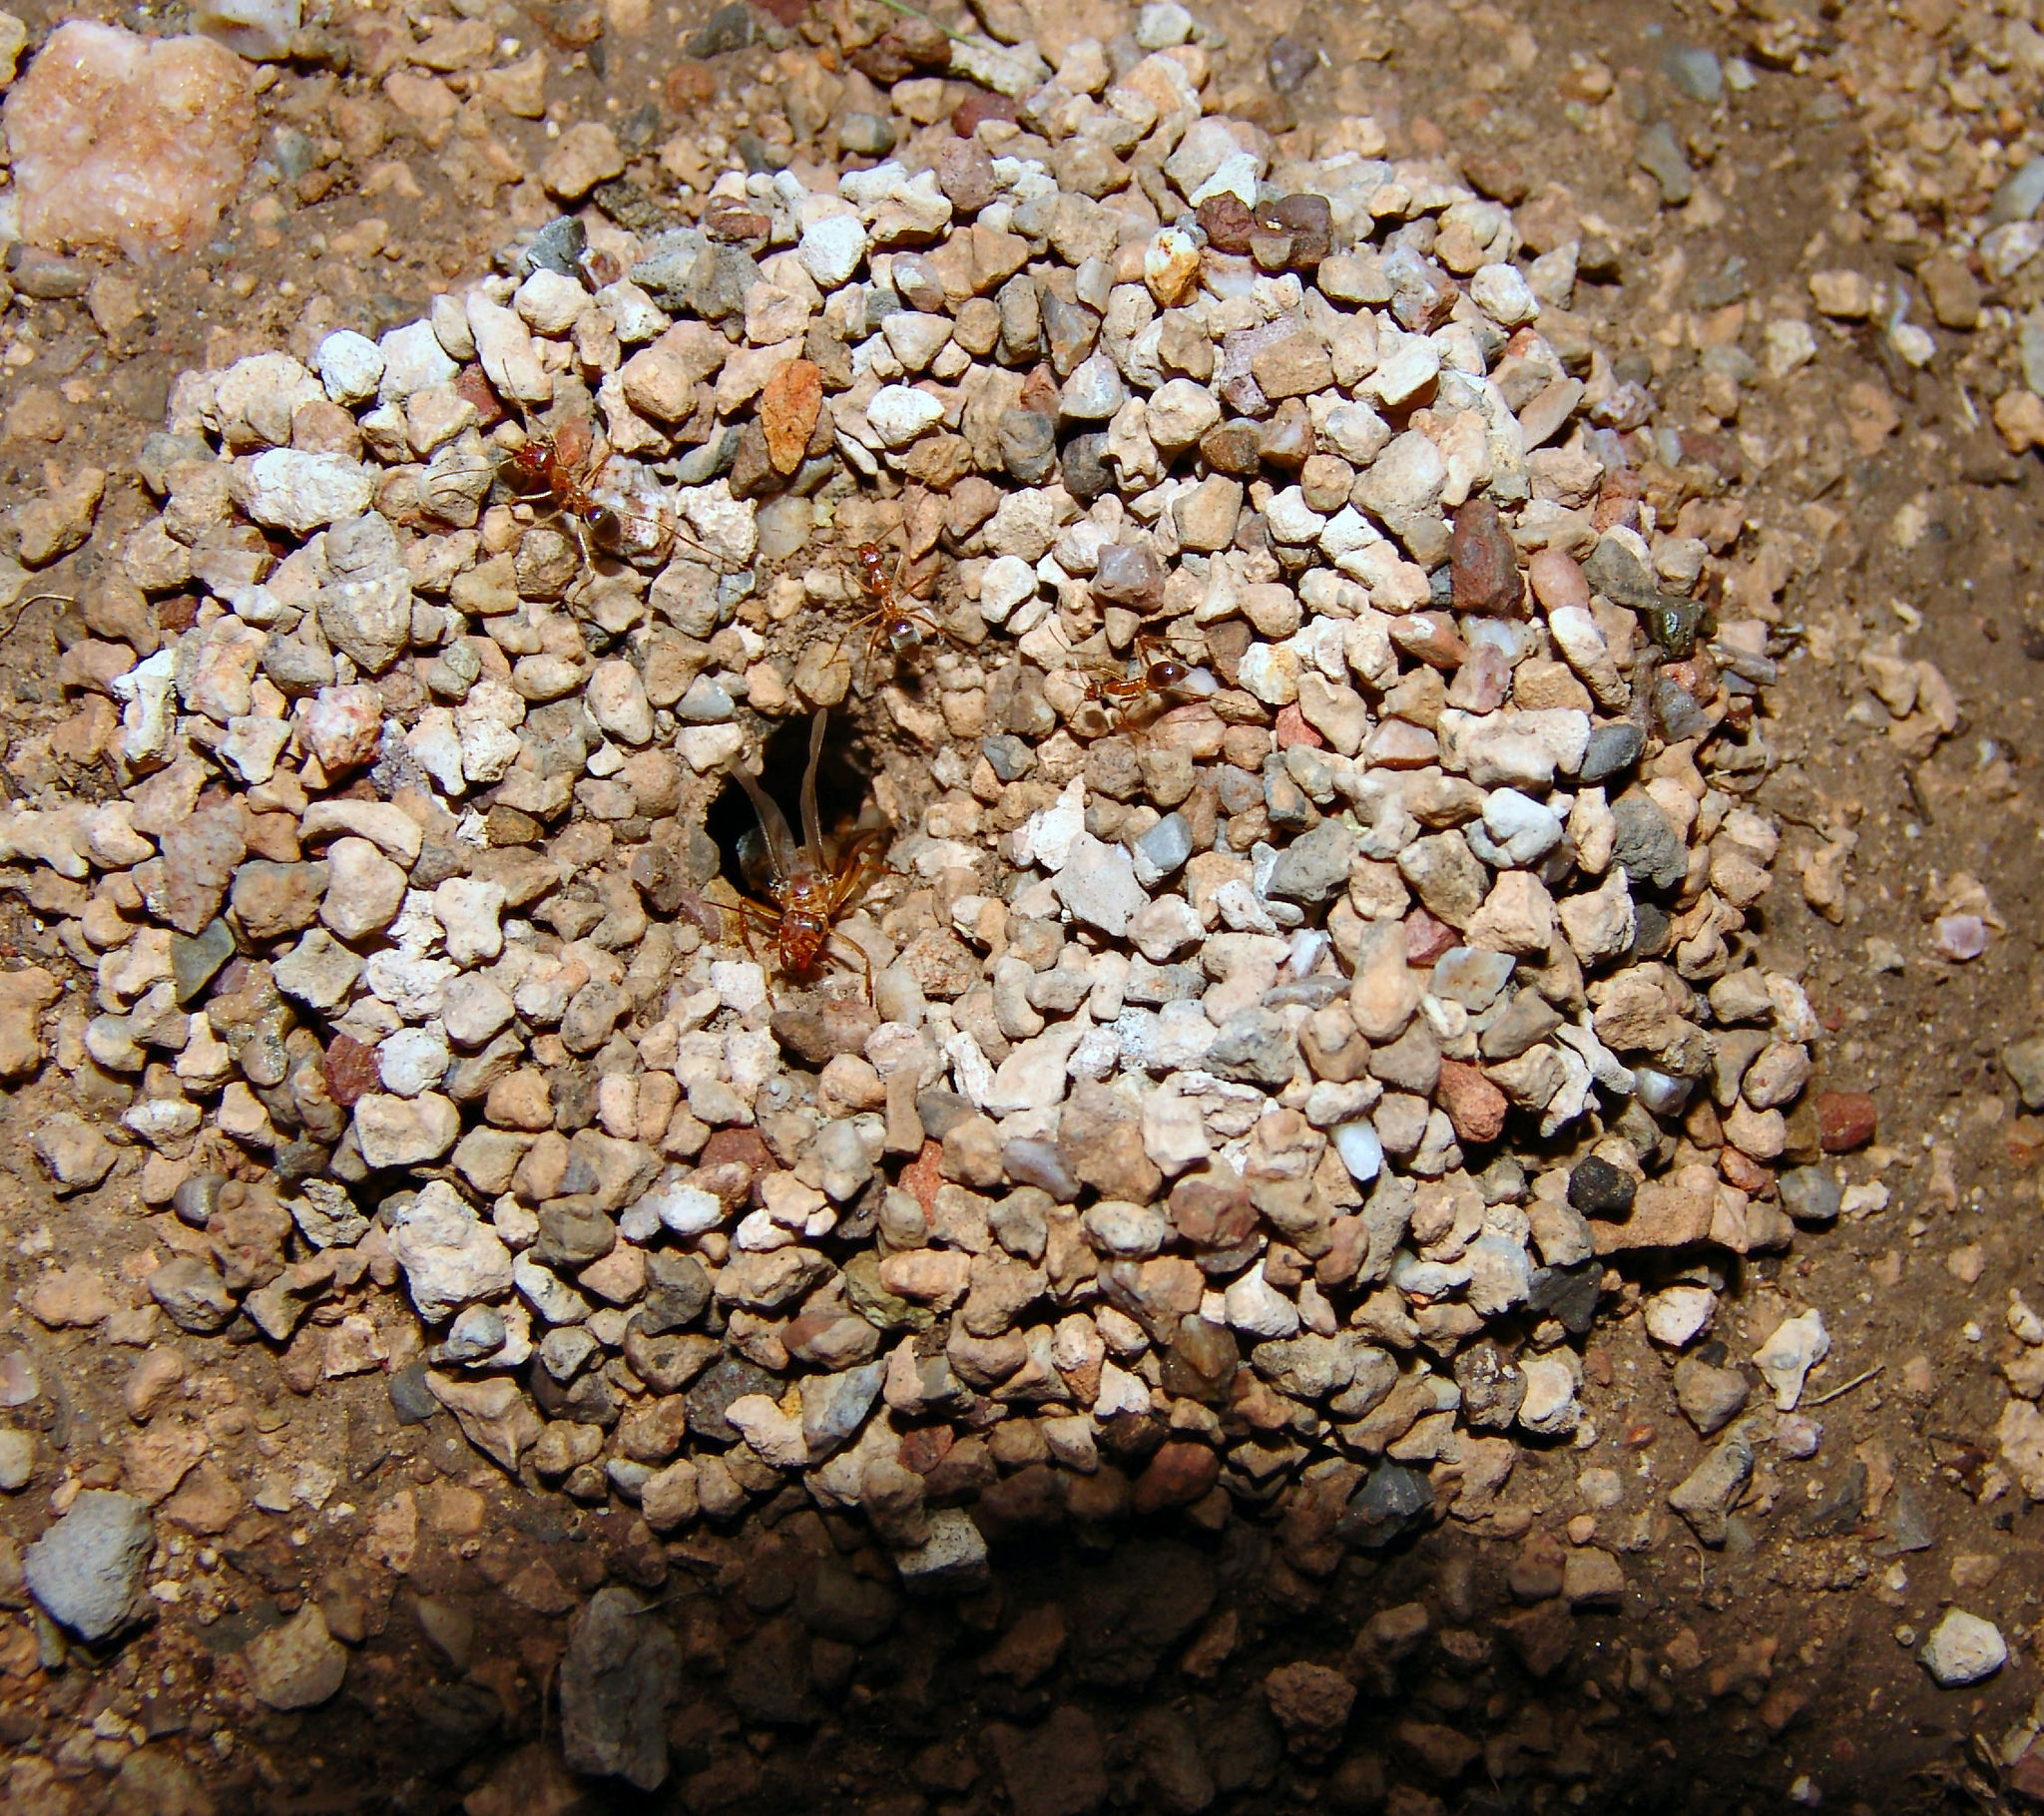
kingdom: Animalia
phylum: Arthropoda
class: Insecta
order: Hymenoptera
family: Formicidae
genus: Myrmecocystus
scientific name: Myrmecocystus mexicanus
